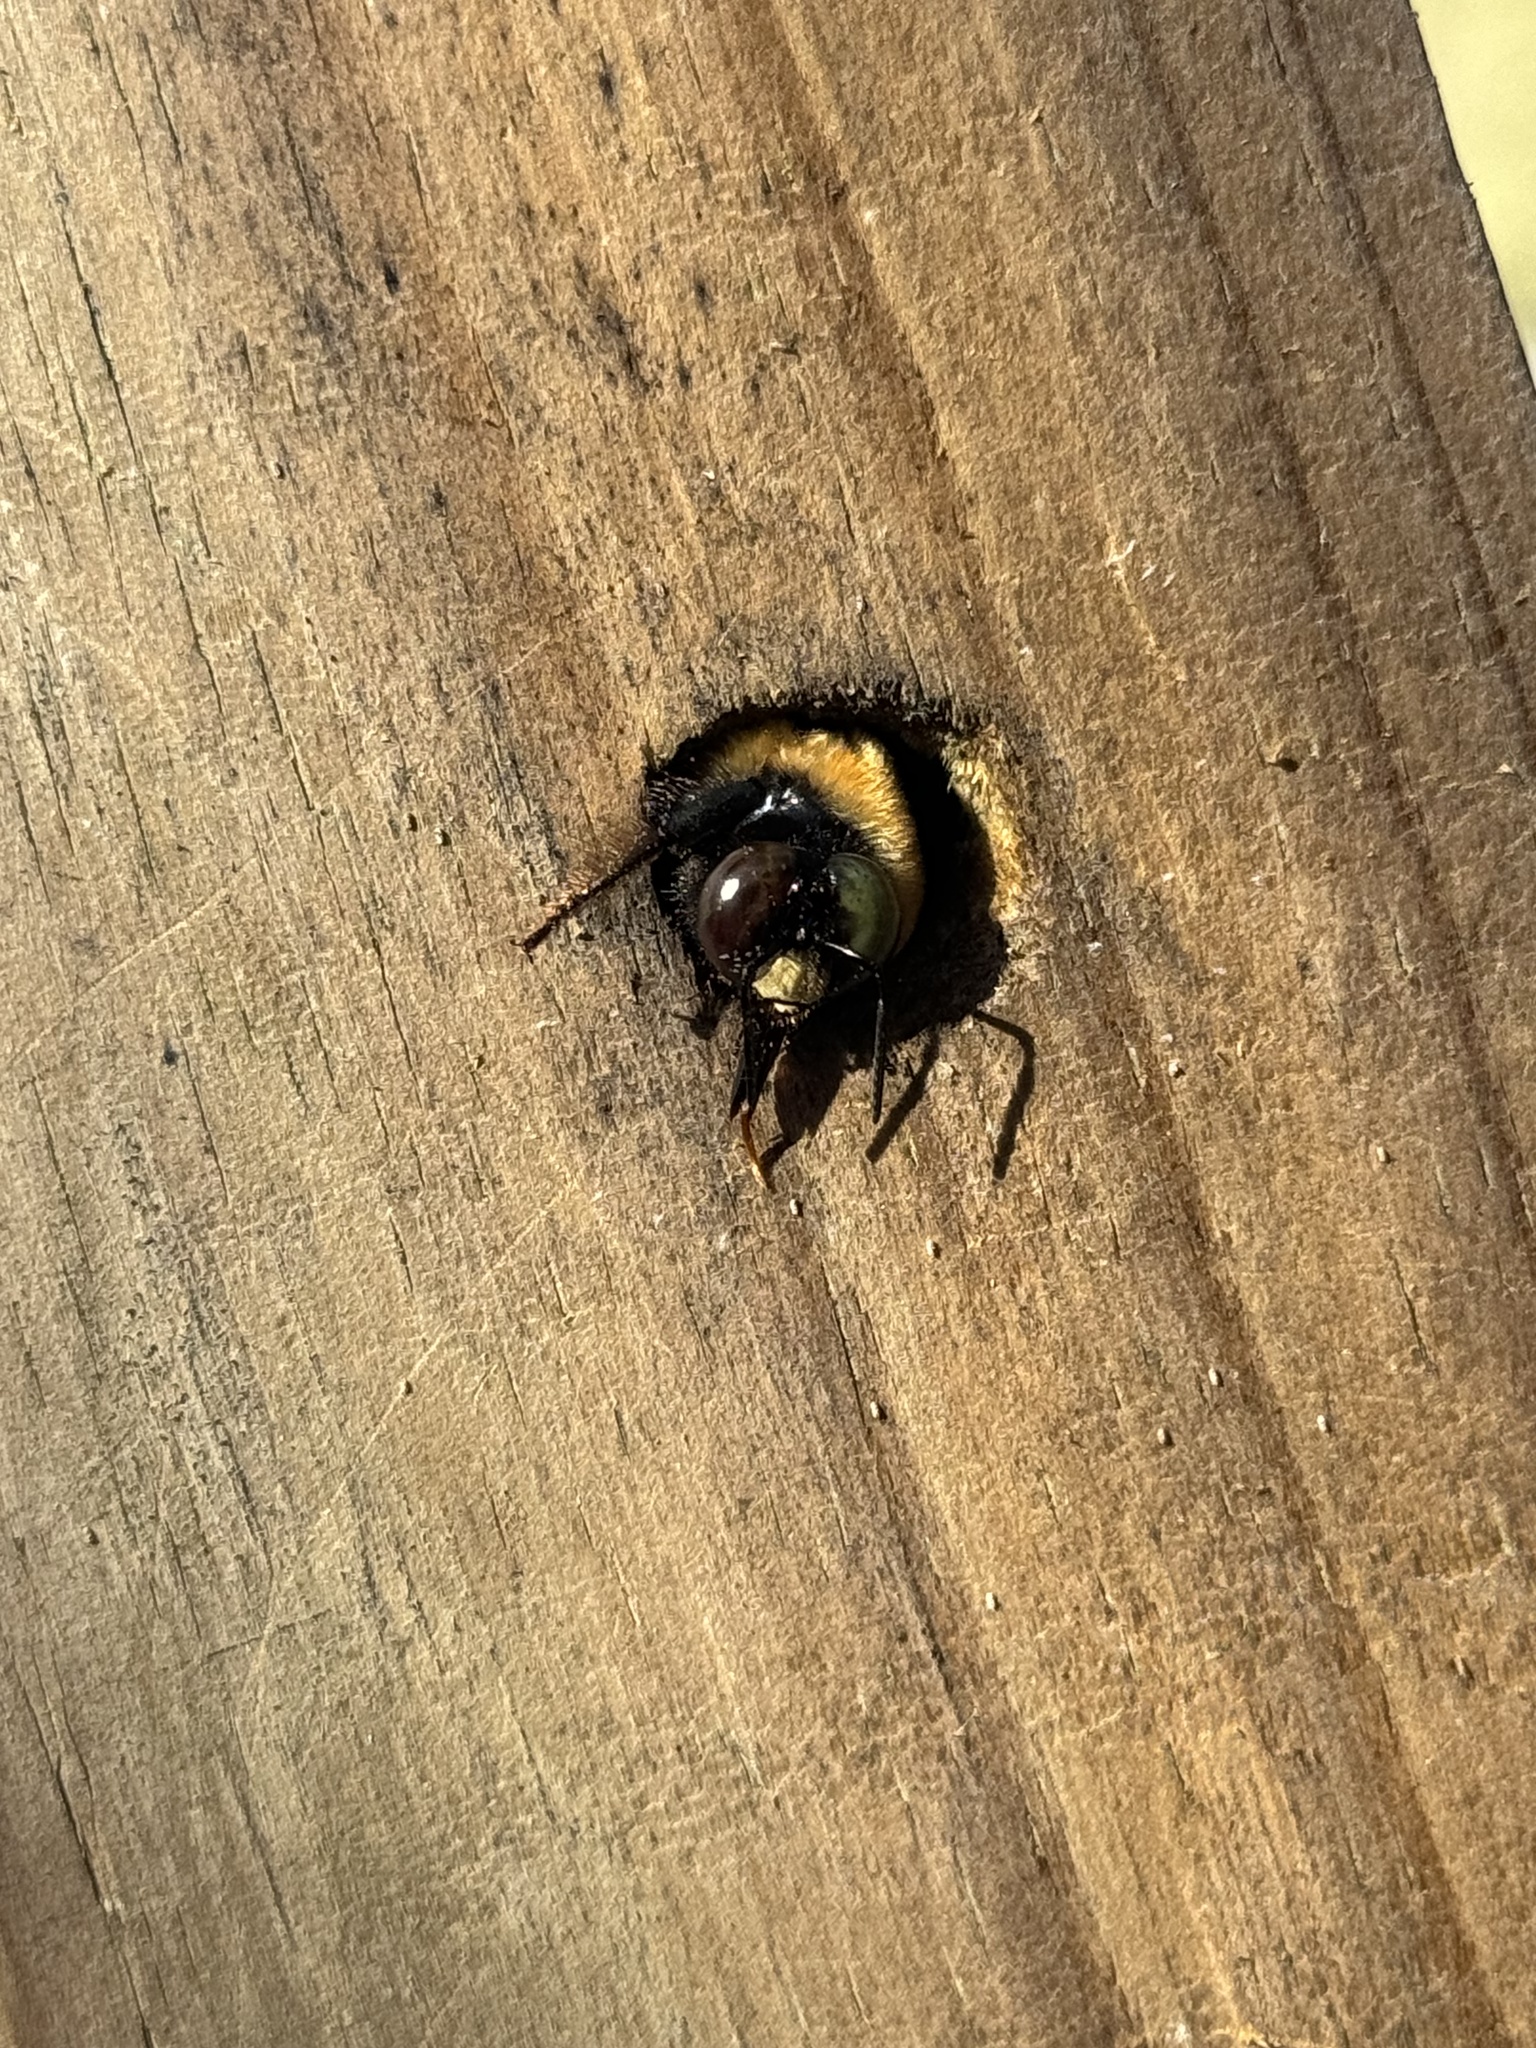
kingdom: Animalia
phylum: Arthropoda
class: Insecta
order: Hymenoptera
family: Apidae
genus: Xylocopa
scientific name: Xylocopa virginica
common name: Carpenter bee
